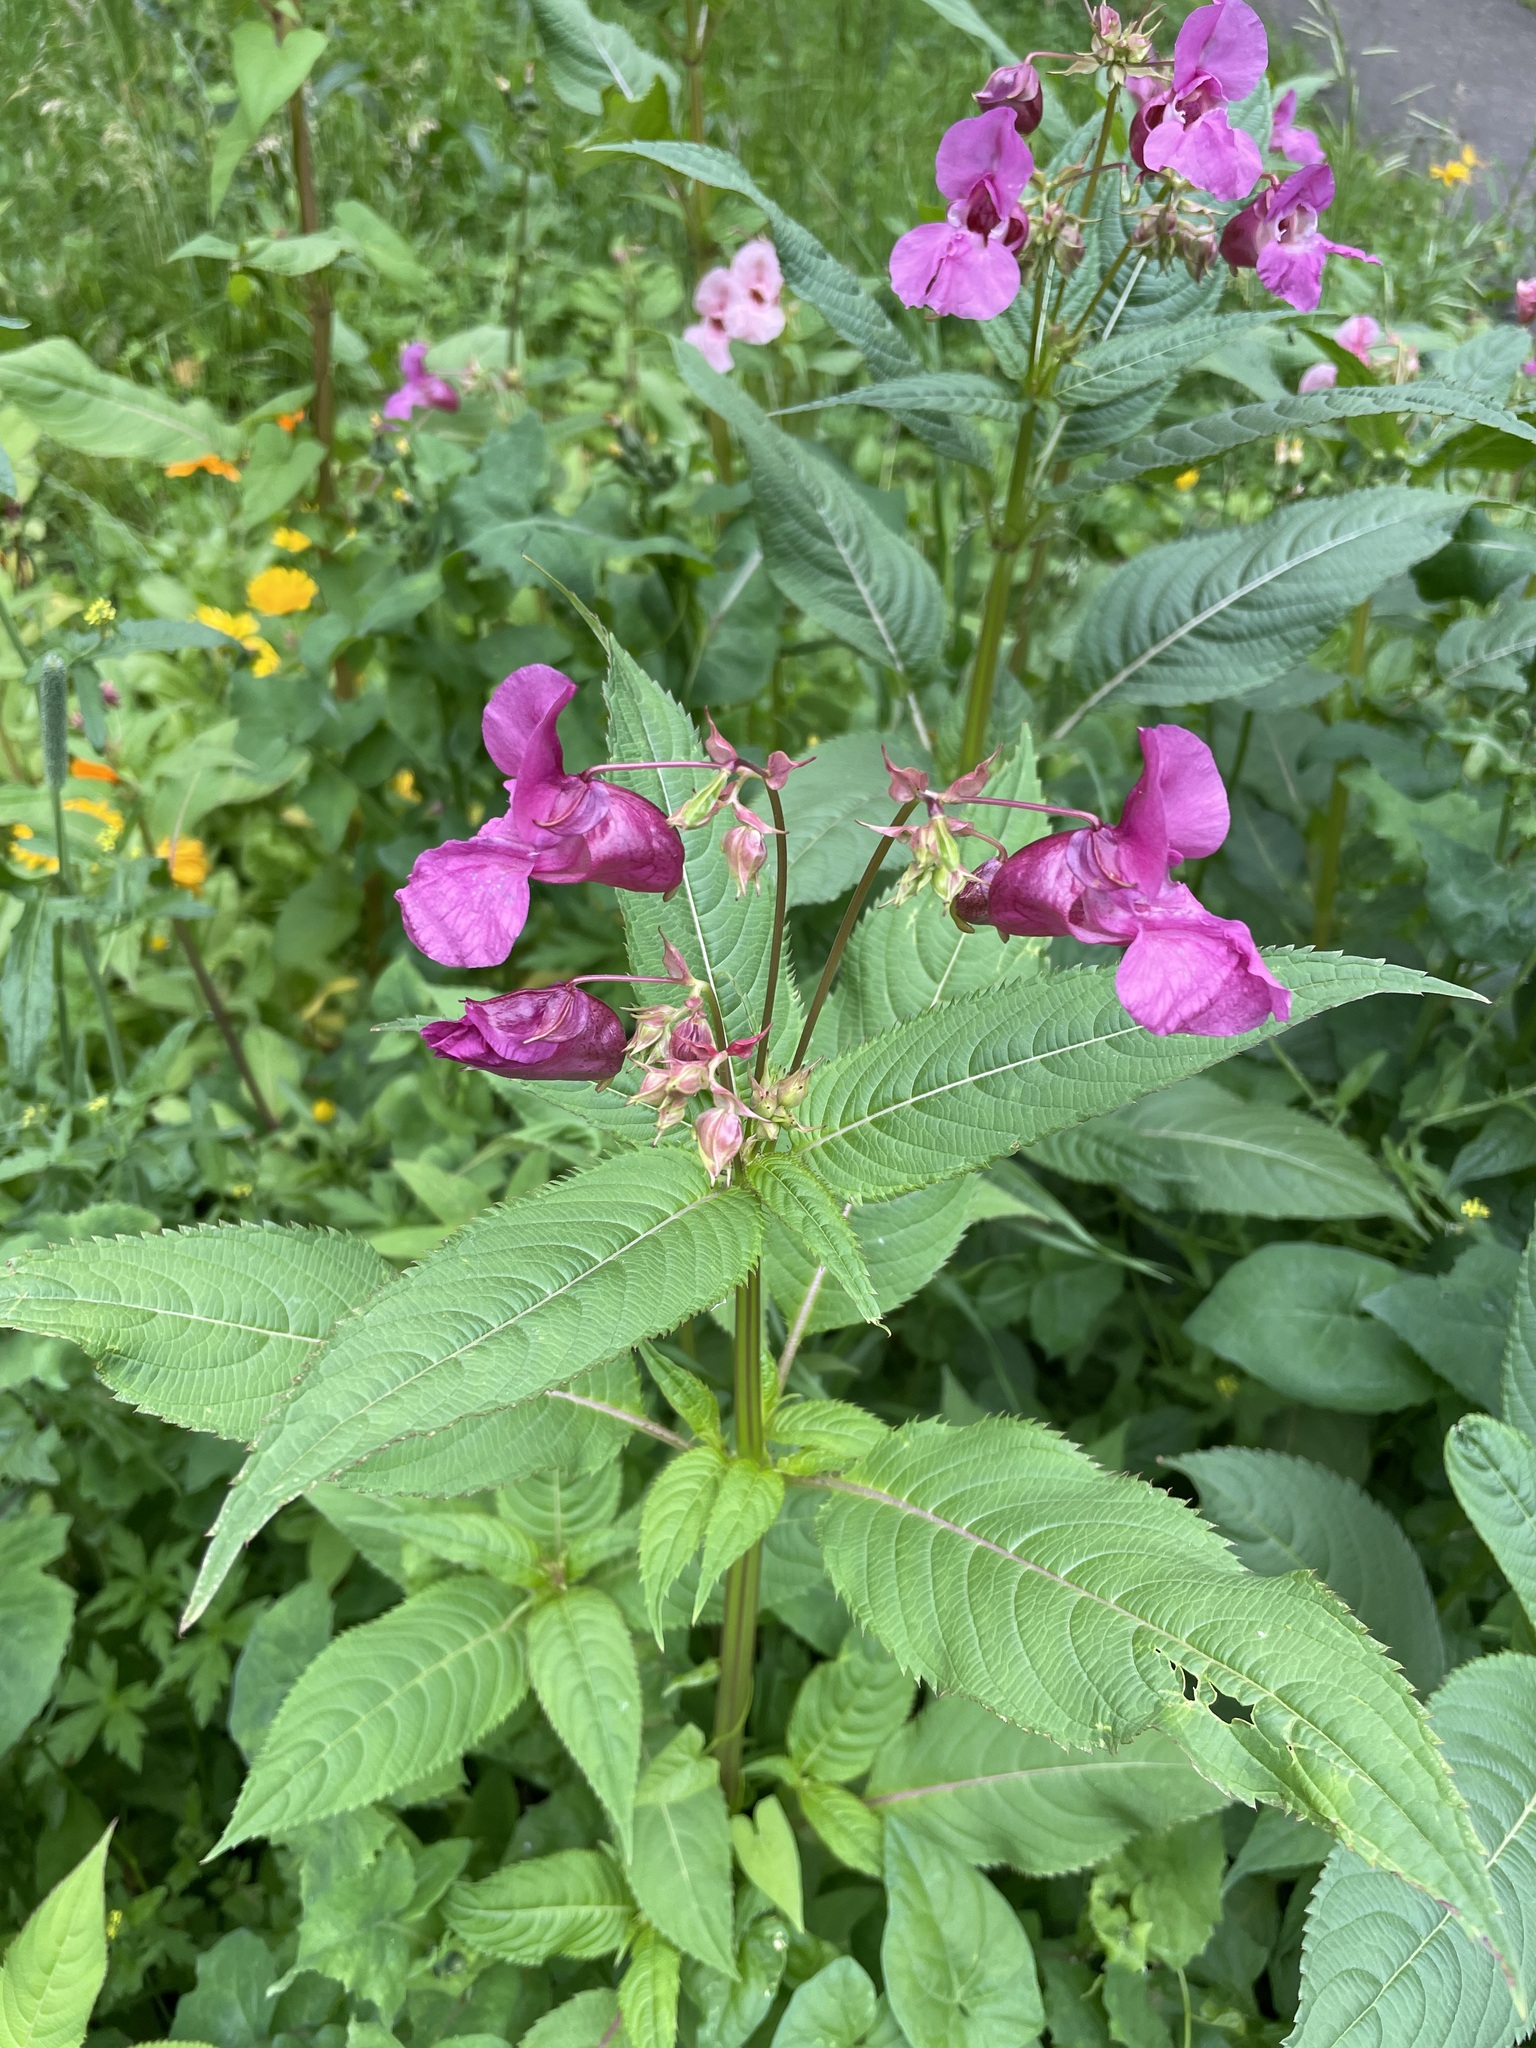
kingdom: Plantae
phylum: Tracheophyta
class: Magnoliopsida
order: Ericales
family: Balsaminaceae
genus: Impatiens
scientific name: Impatiens glandulifera
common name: Himalayan balsam
